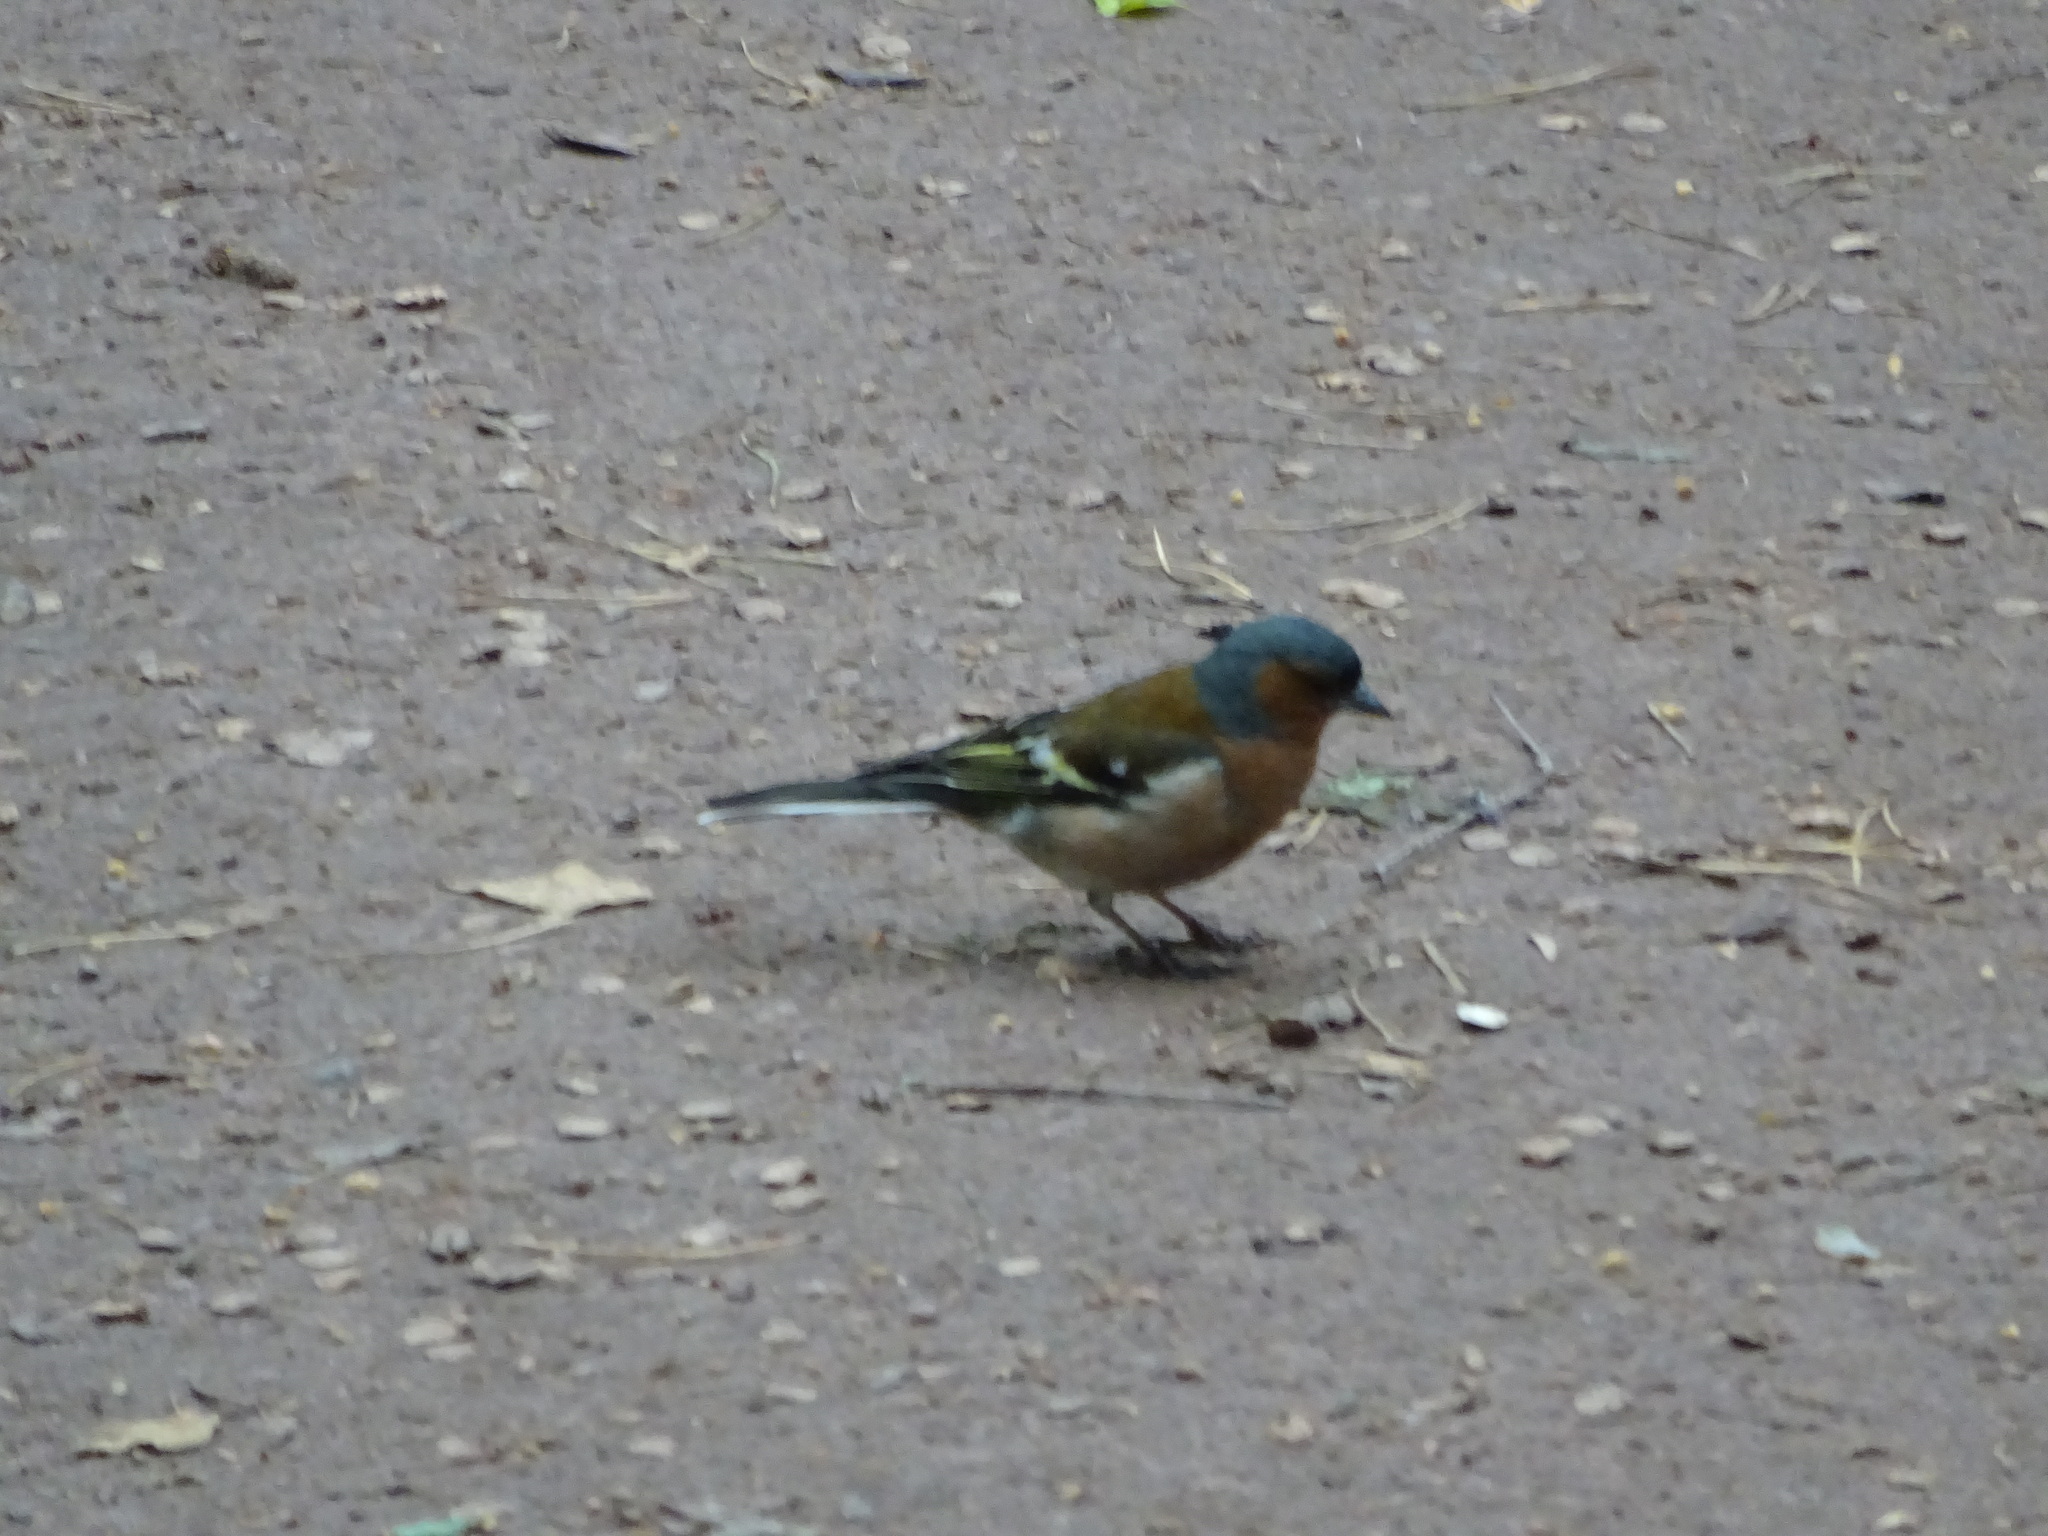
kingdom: Animalia
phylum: Chordata
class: Aves
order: Passeriformes
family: Fringillidae
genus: Fringilla
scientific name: Fringilla coelebs
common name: Common chaffinch
